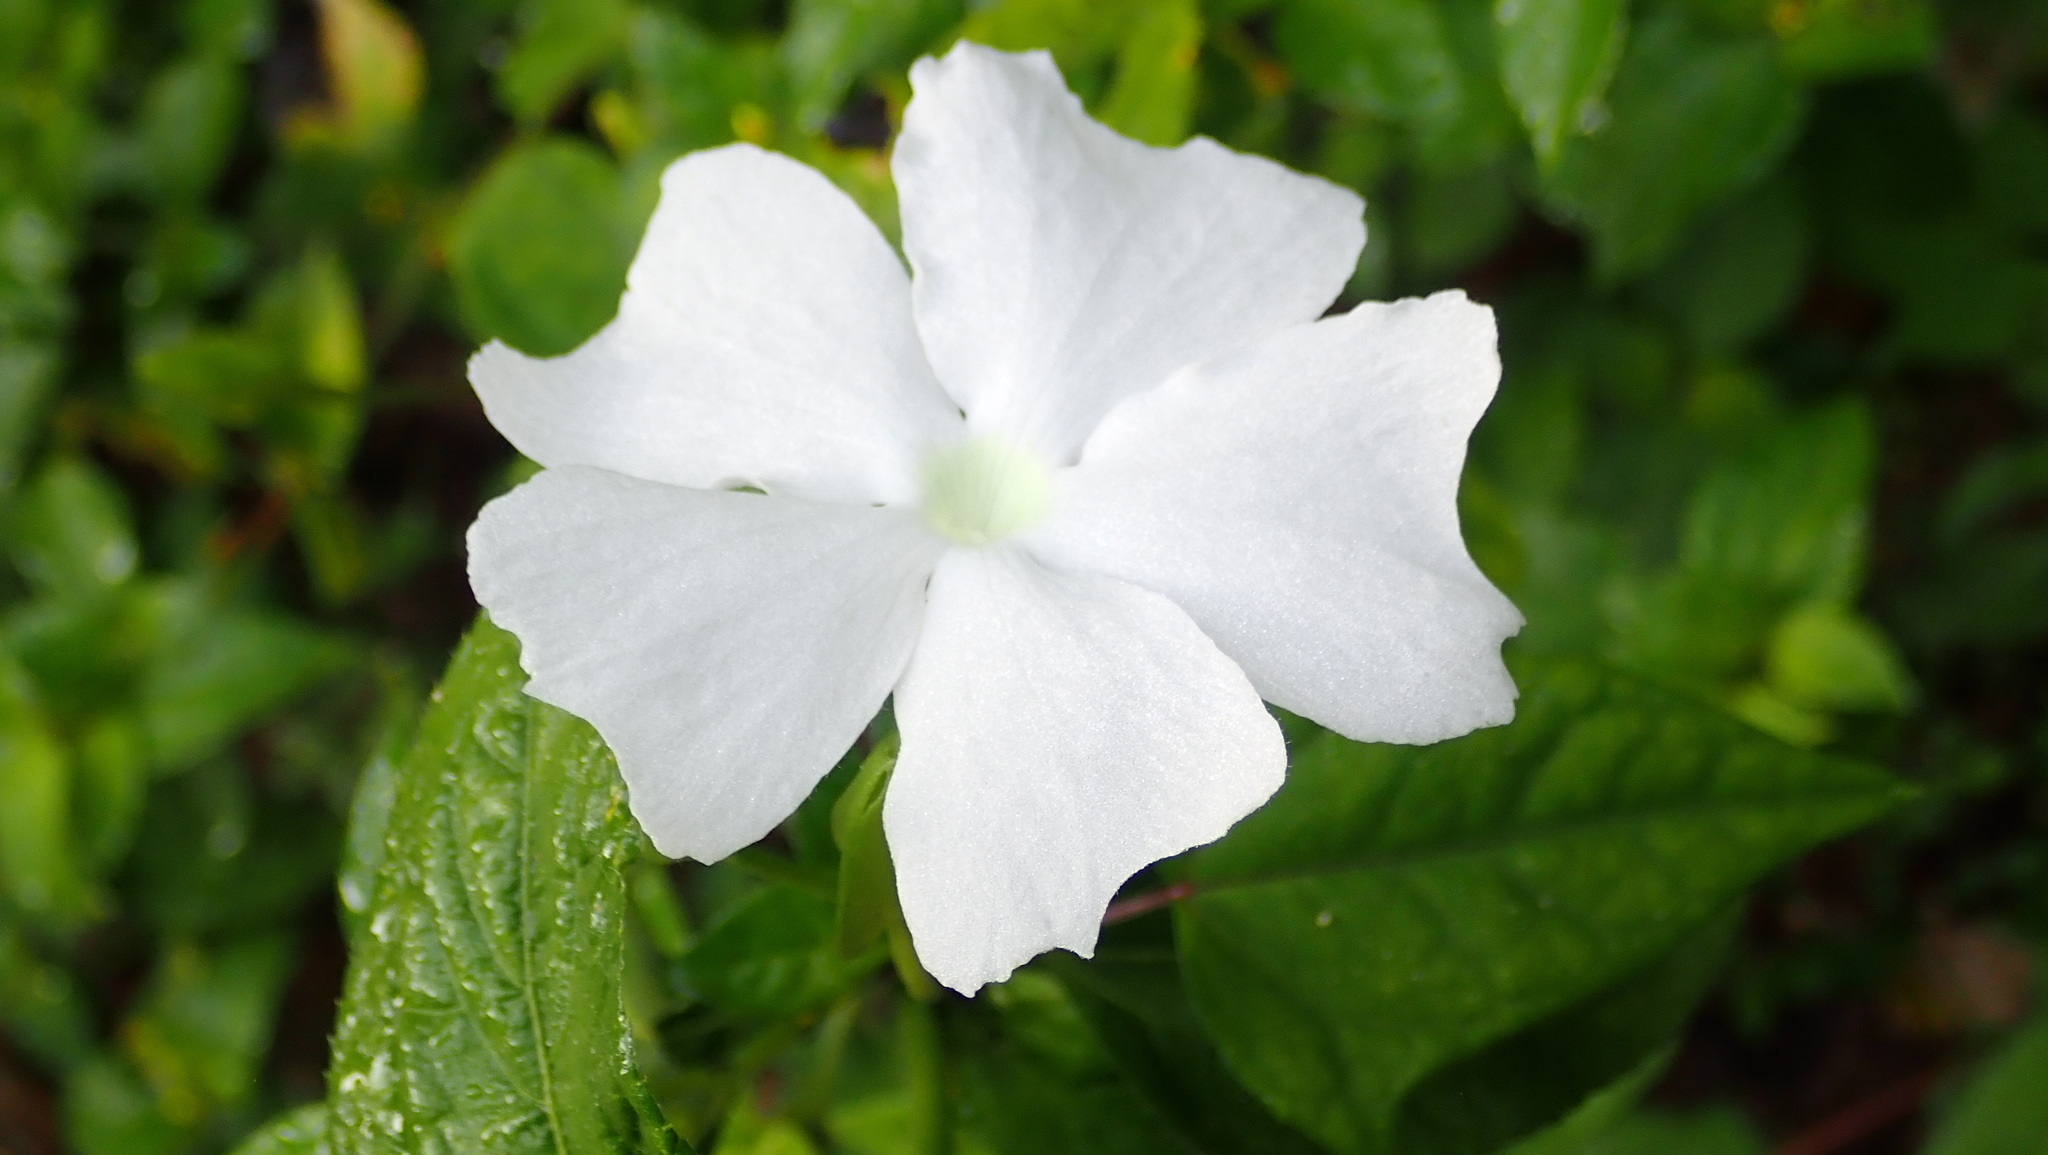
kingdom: Plantae
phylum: Tracheophyta
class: Magnoliopsida
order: Lamiales
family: Acanthaceae
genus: Thunbergia
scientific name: Thunbergia fragrans
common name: Whitelady
